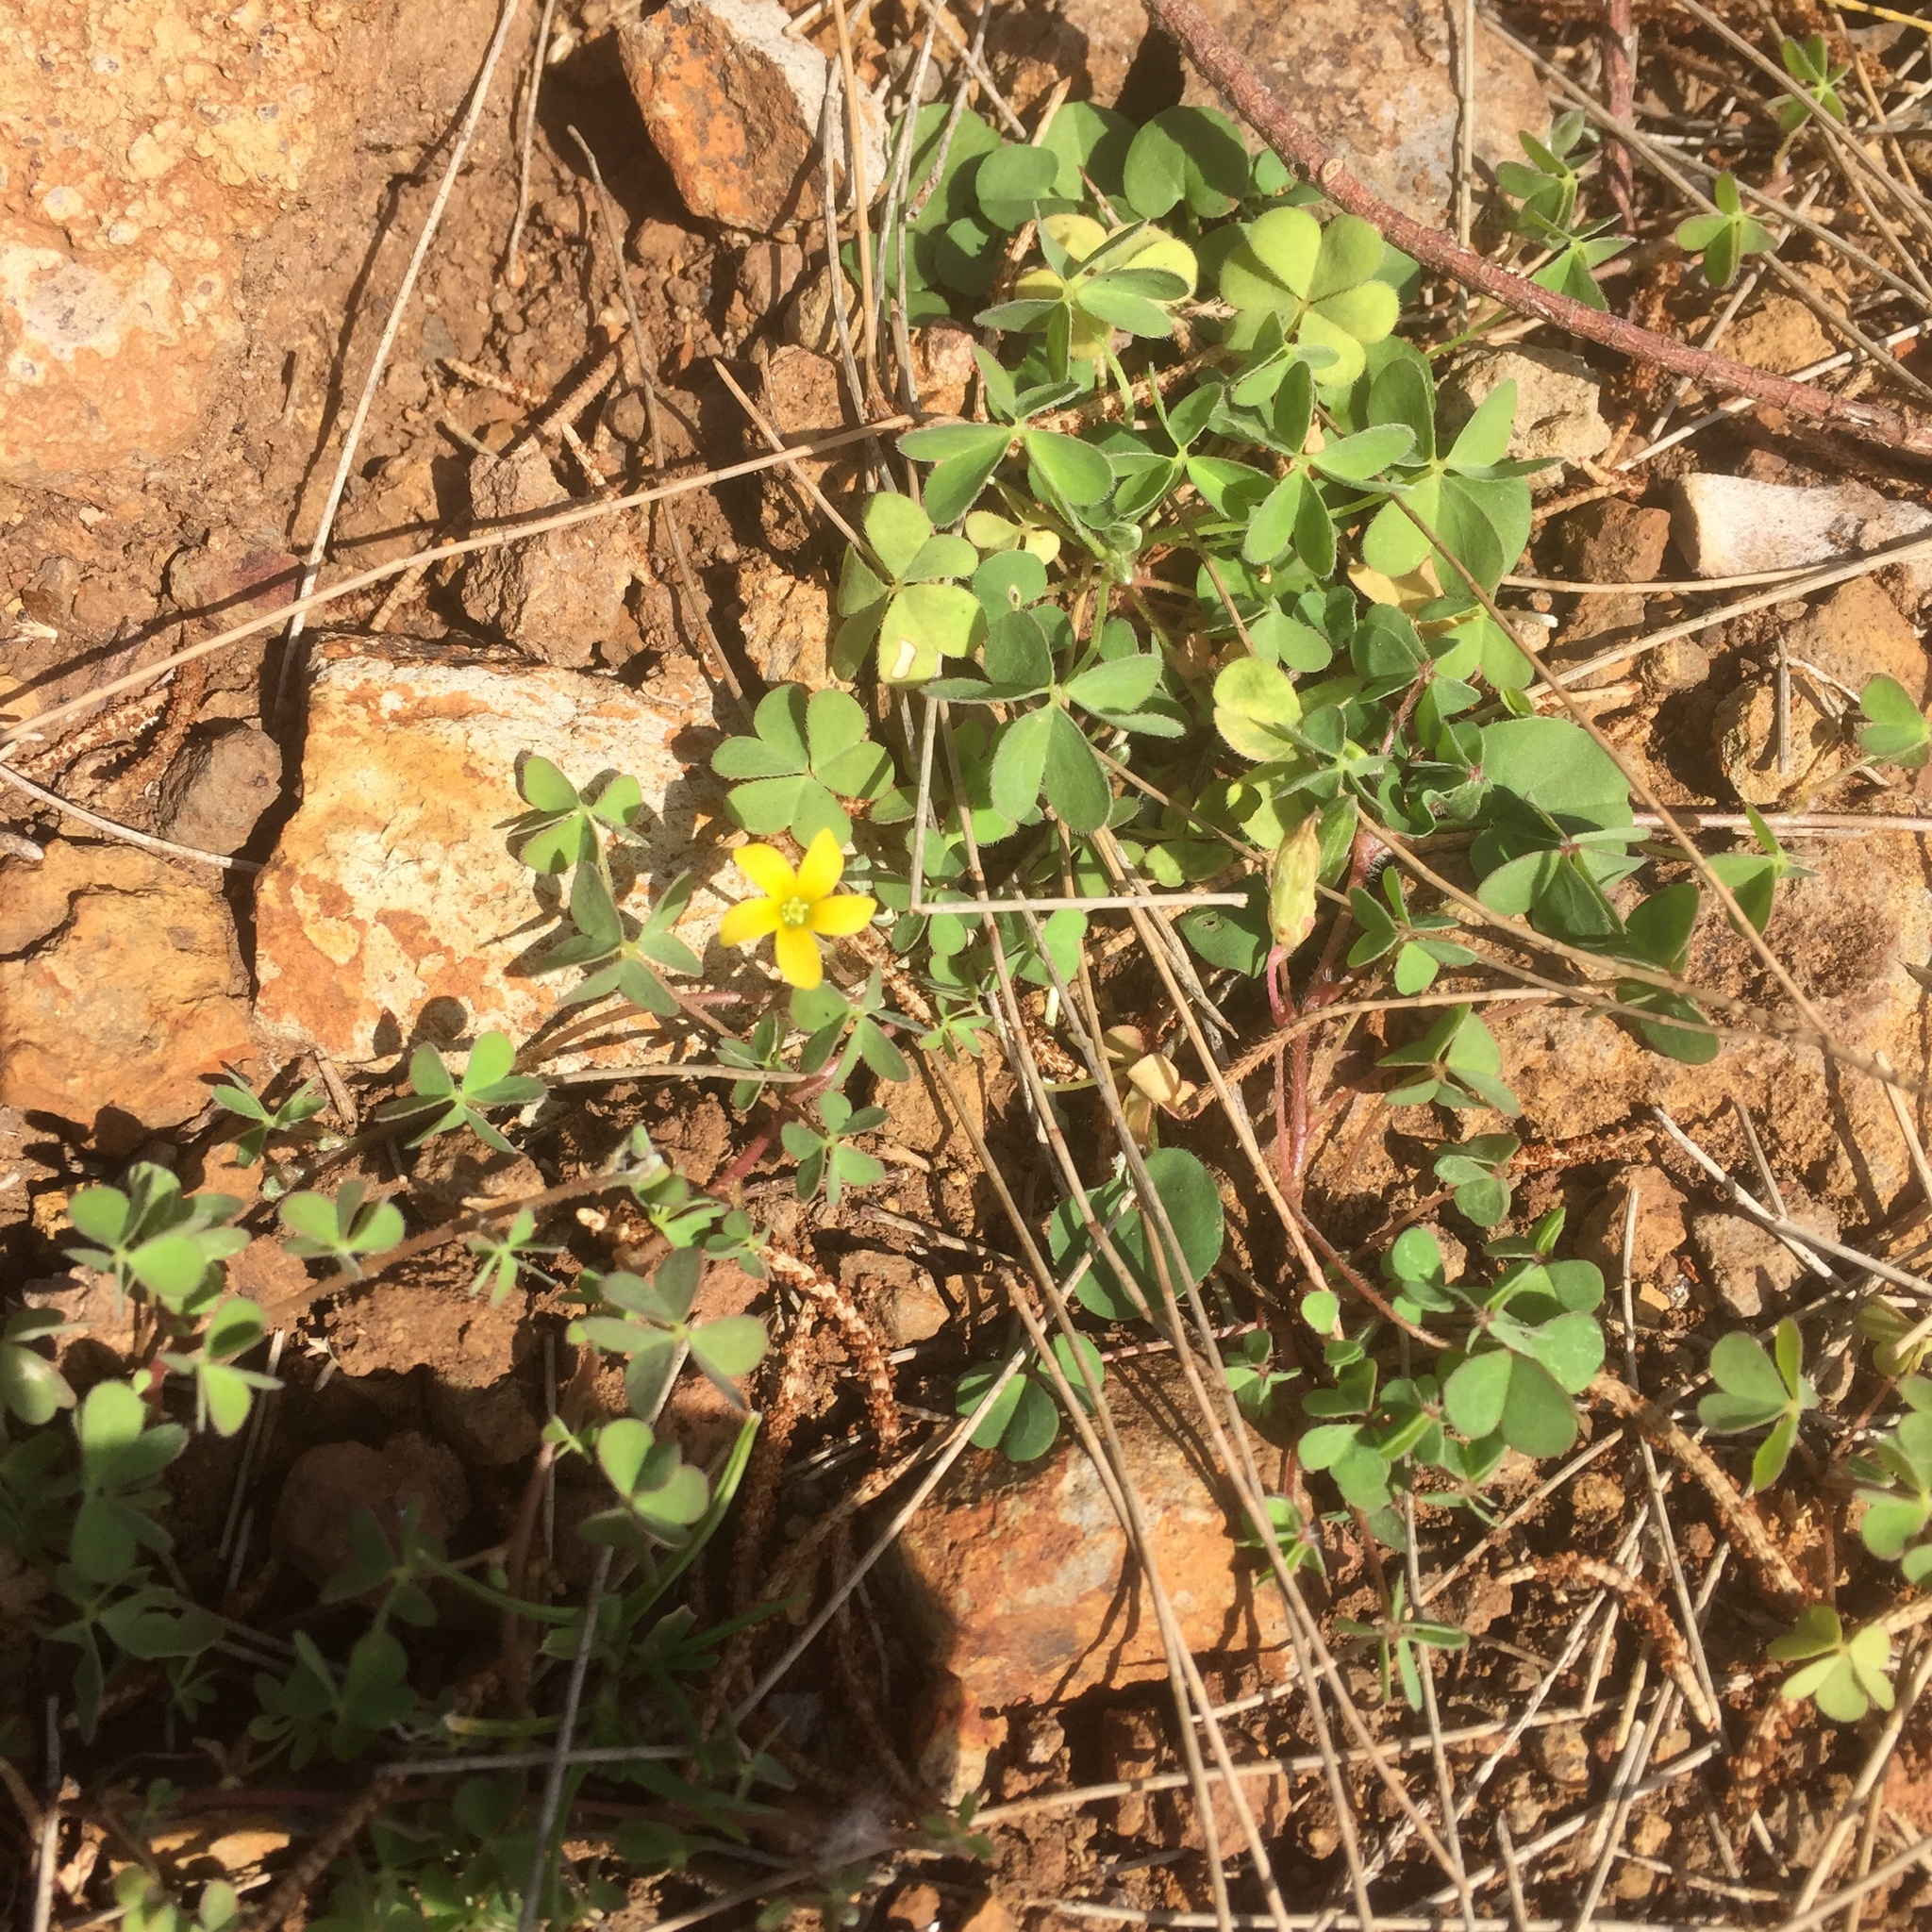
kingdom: Plantae
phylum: Tracheophyta
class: Magnoliopsida
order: Oxalidales
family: Oxalidaceae
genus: Oxalis
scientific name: Oxalis corniculata
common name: Procumbent yellow-sorrel
